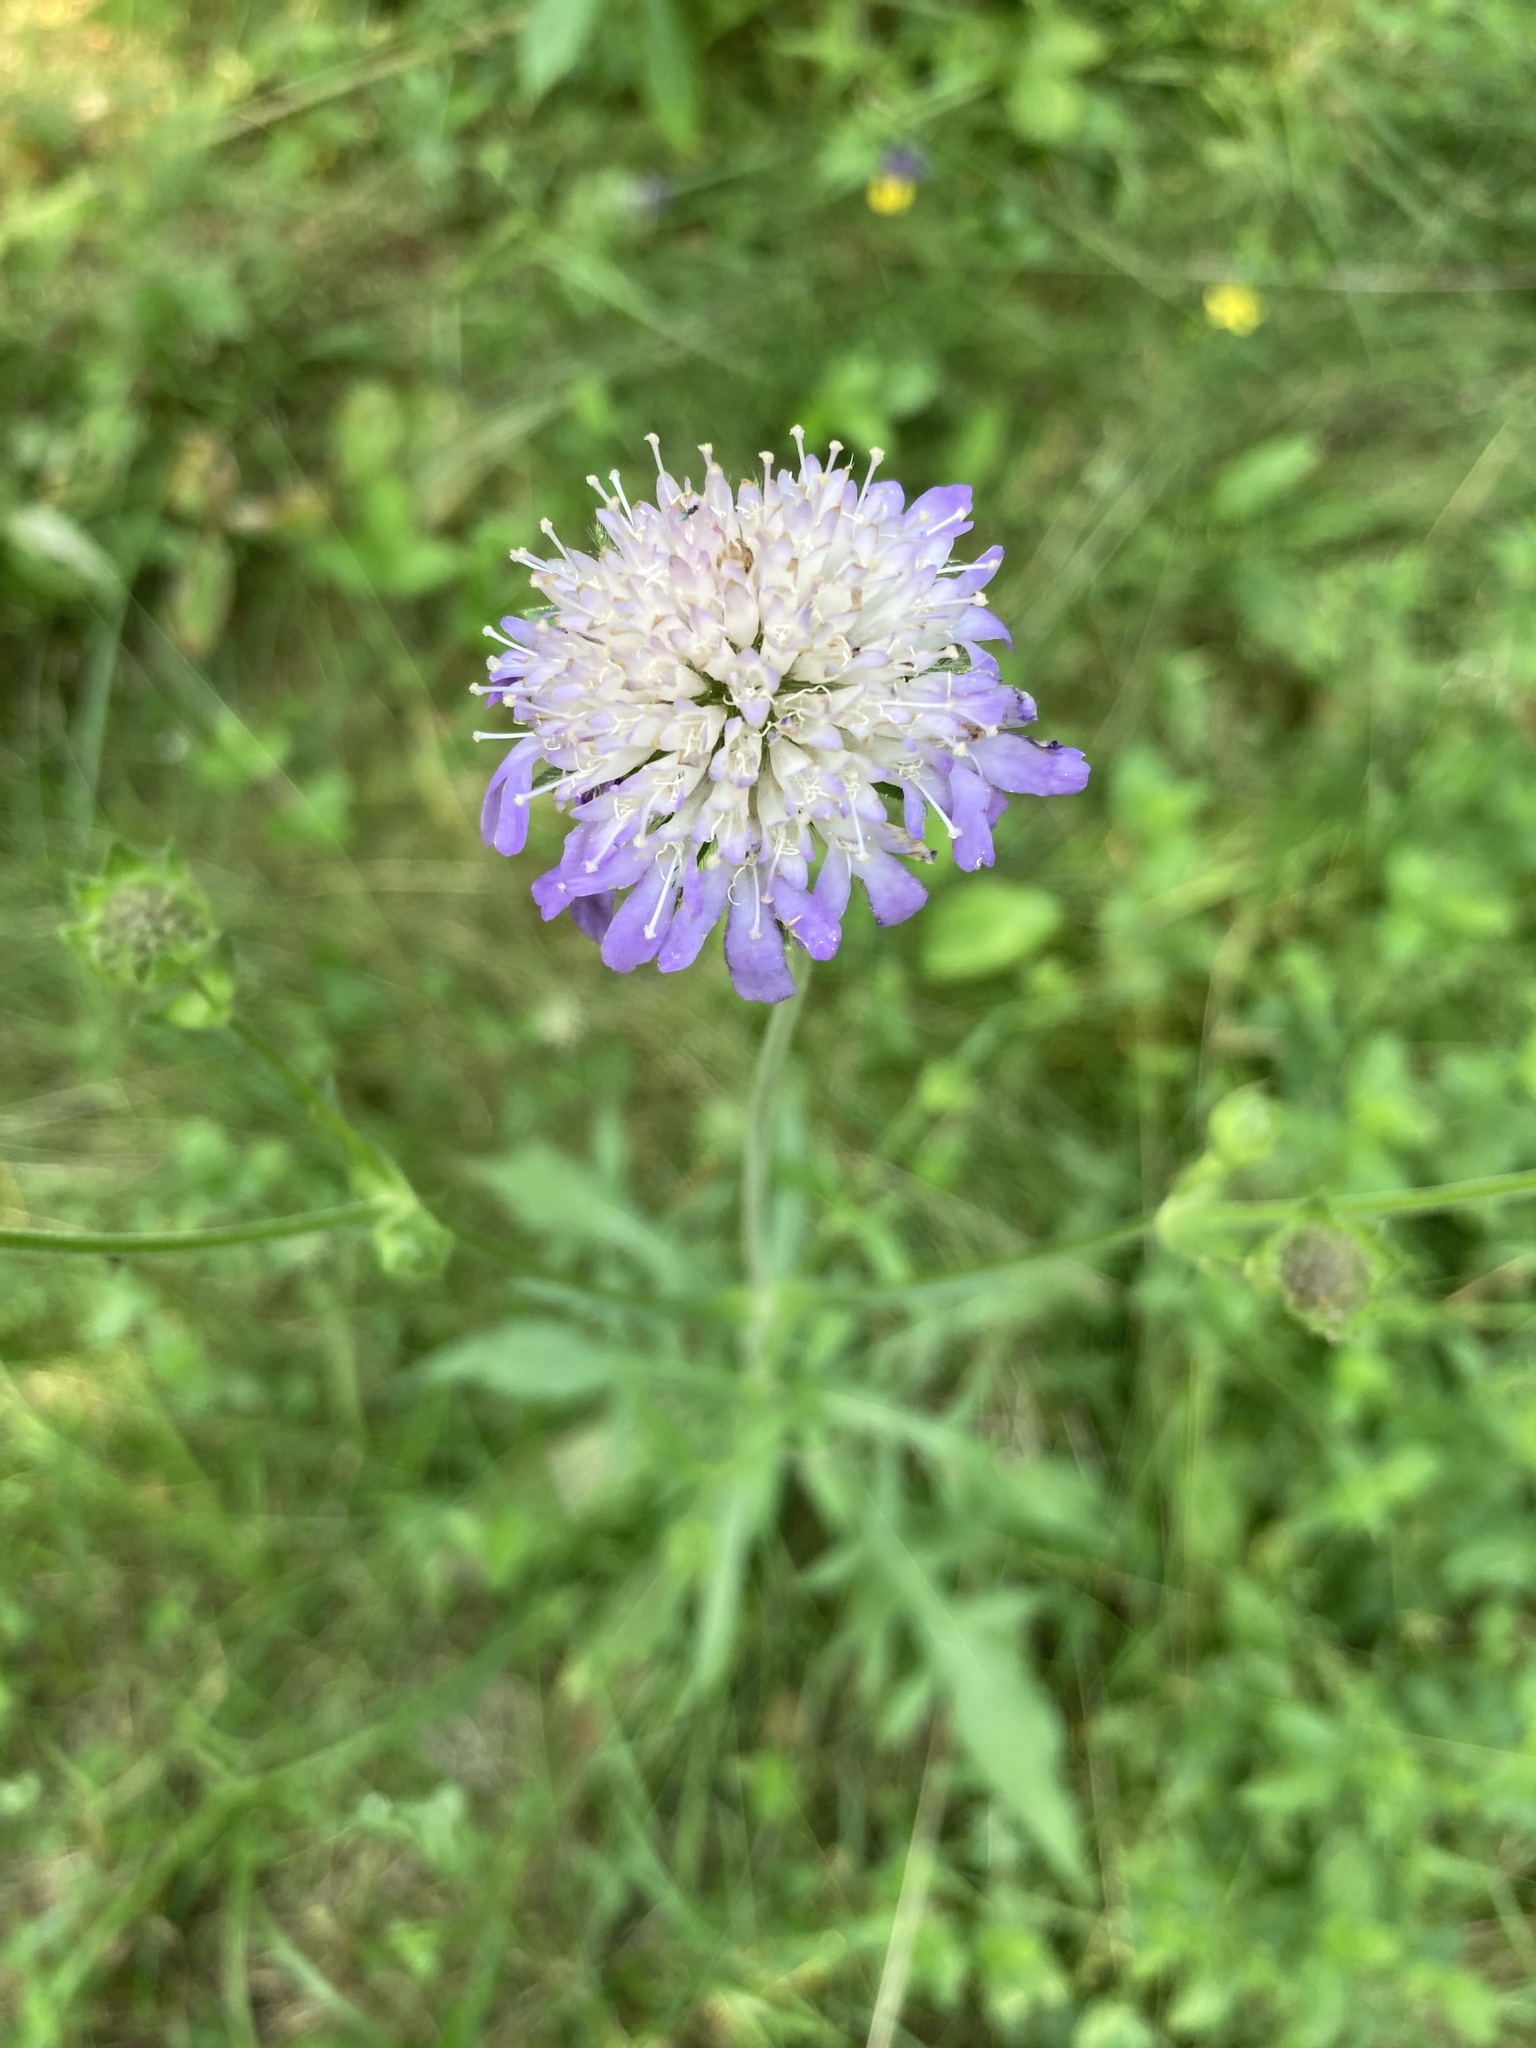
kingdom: Plantae
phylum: Tracheophyta
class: Magnoliopsida
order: Dipsacales
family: Caprifoliaceae
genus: Knautia
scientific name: Knautia arvensis
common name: Field scabiosa
